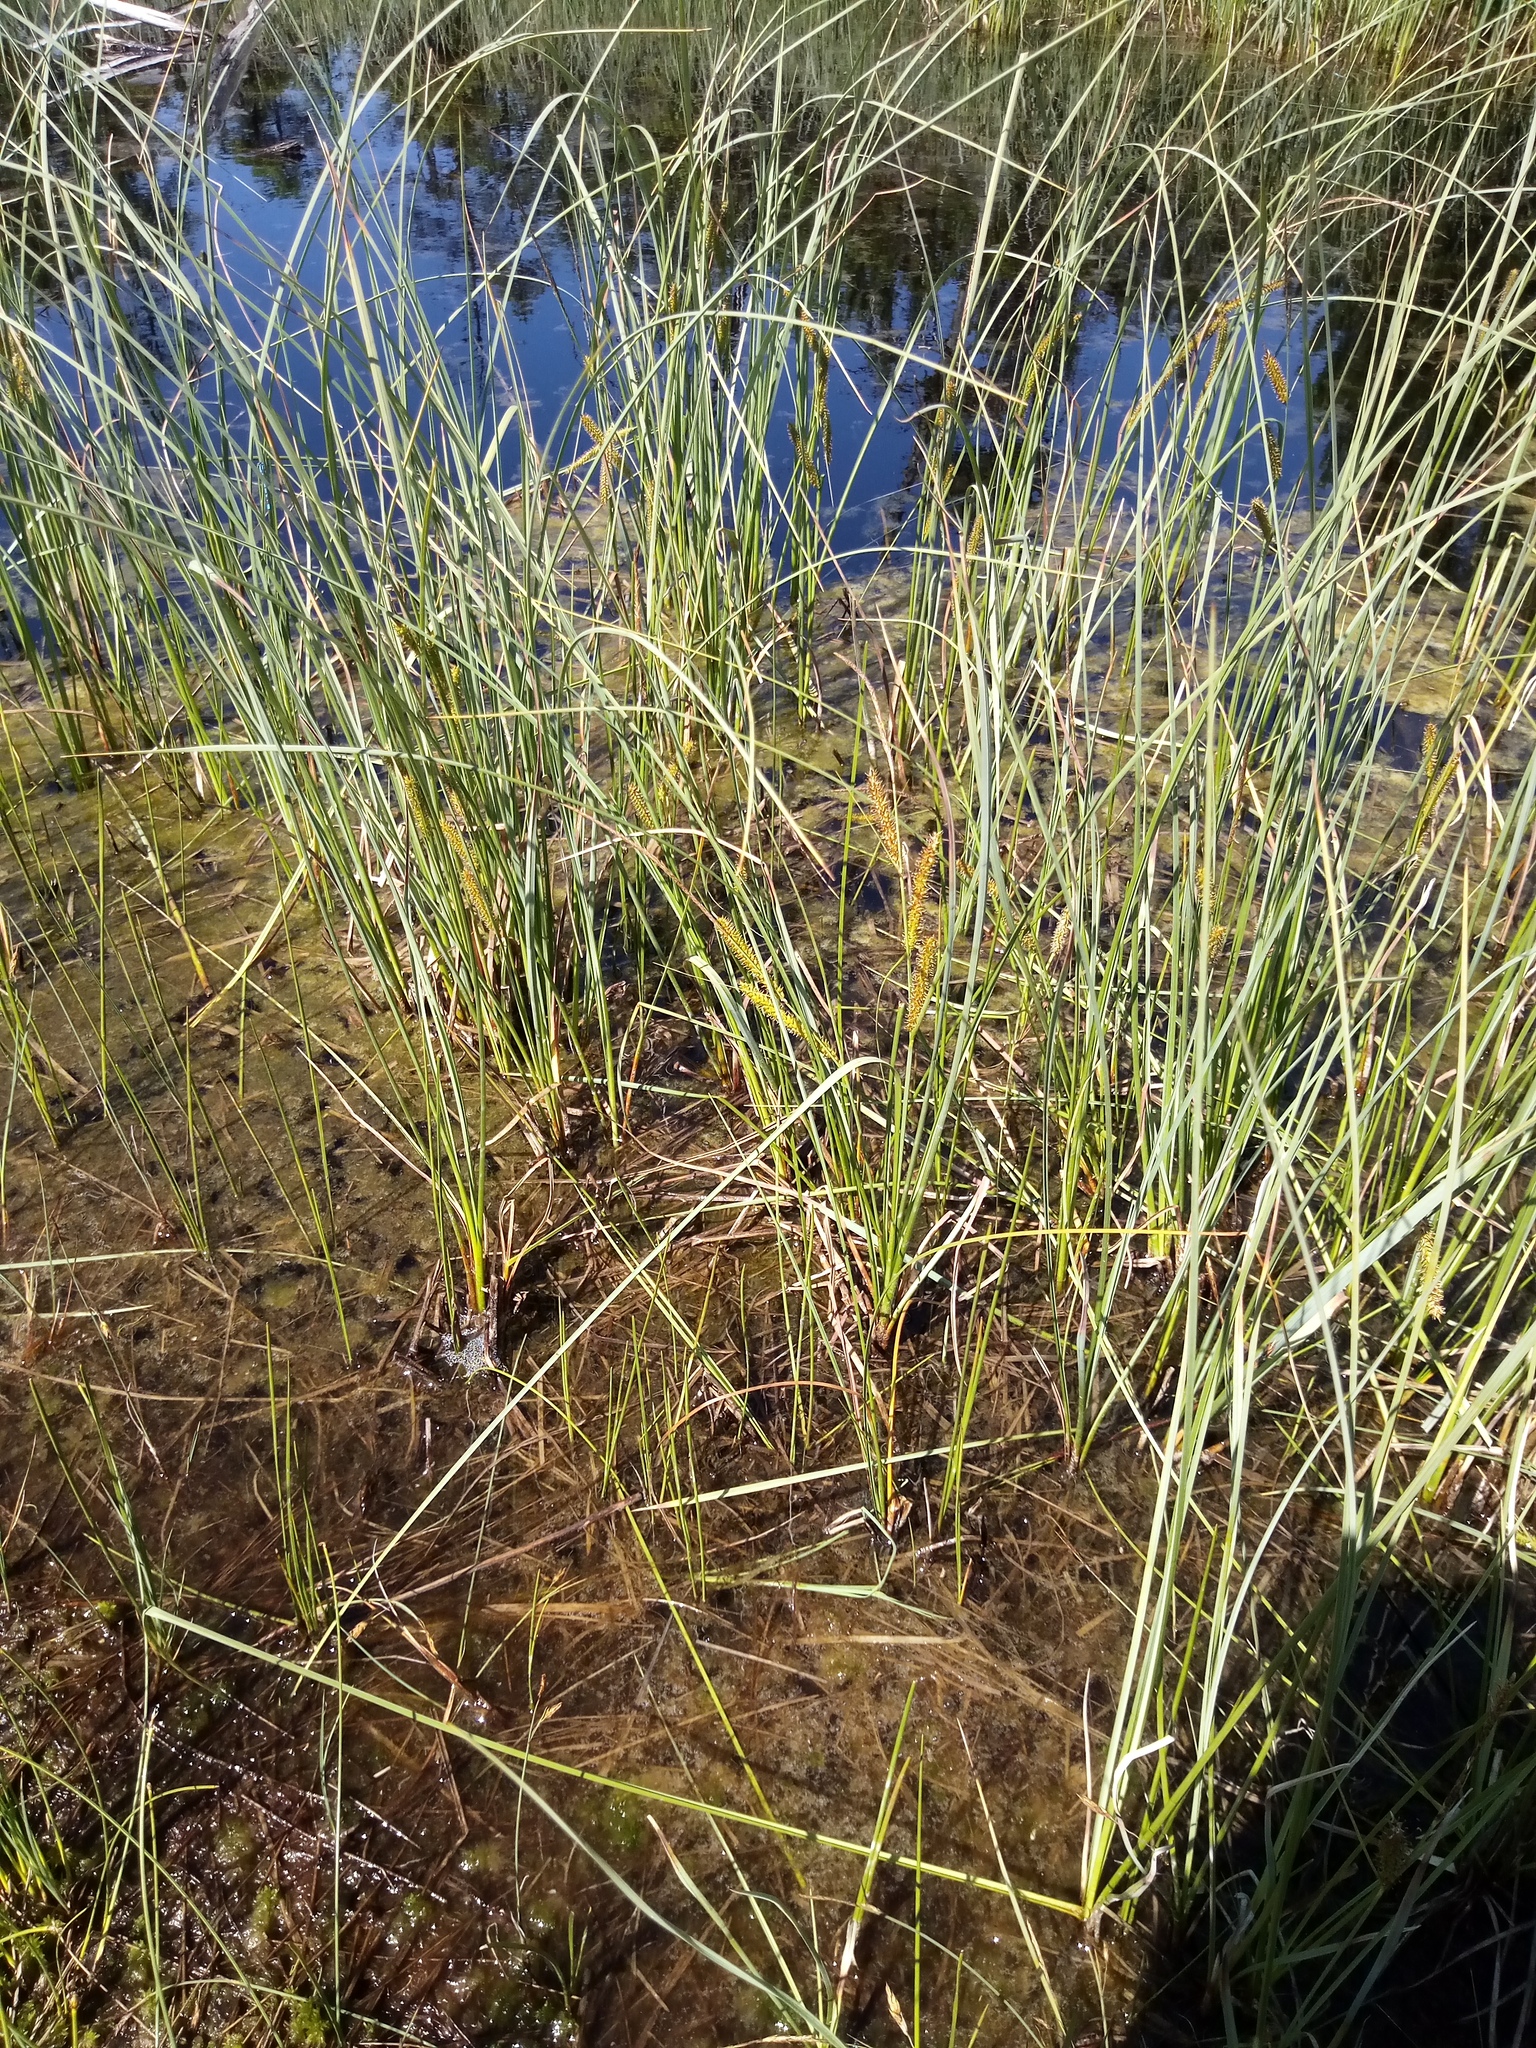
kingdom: Plantae
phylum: Tracheophyta
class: Liliopsida
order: Poales
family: Cyperaceae
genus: Carex
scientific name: Carex rostrata
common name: Bottle sedge
